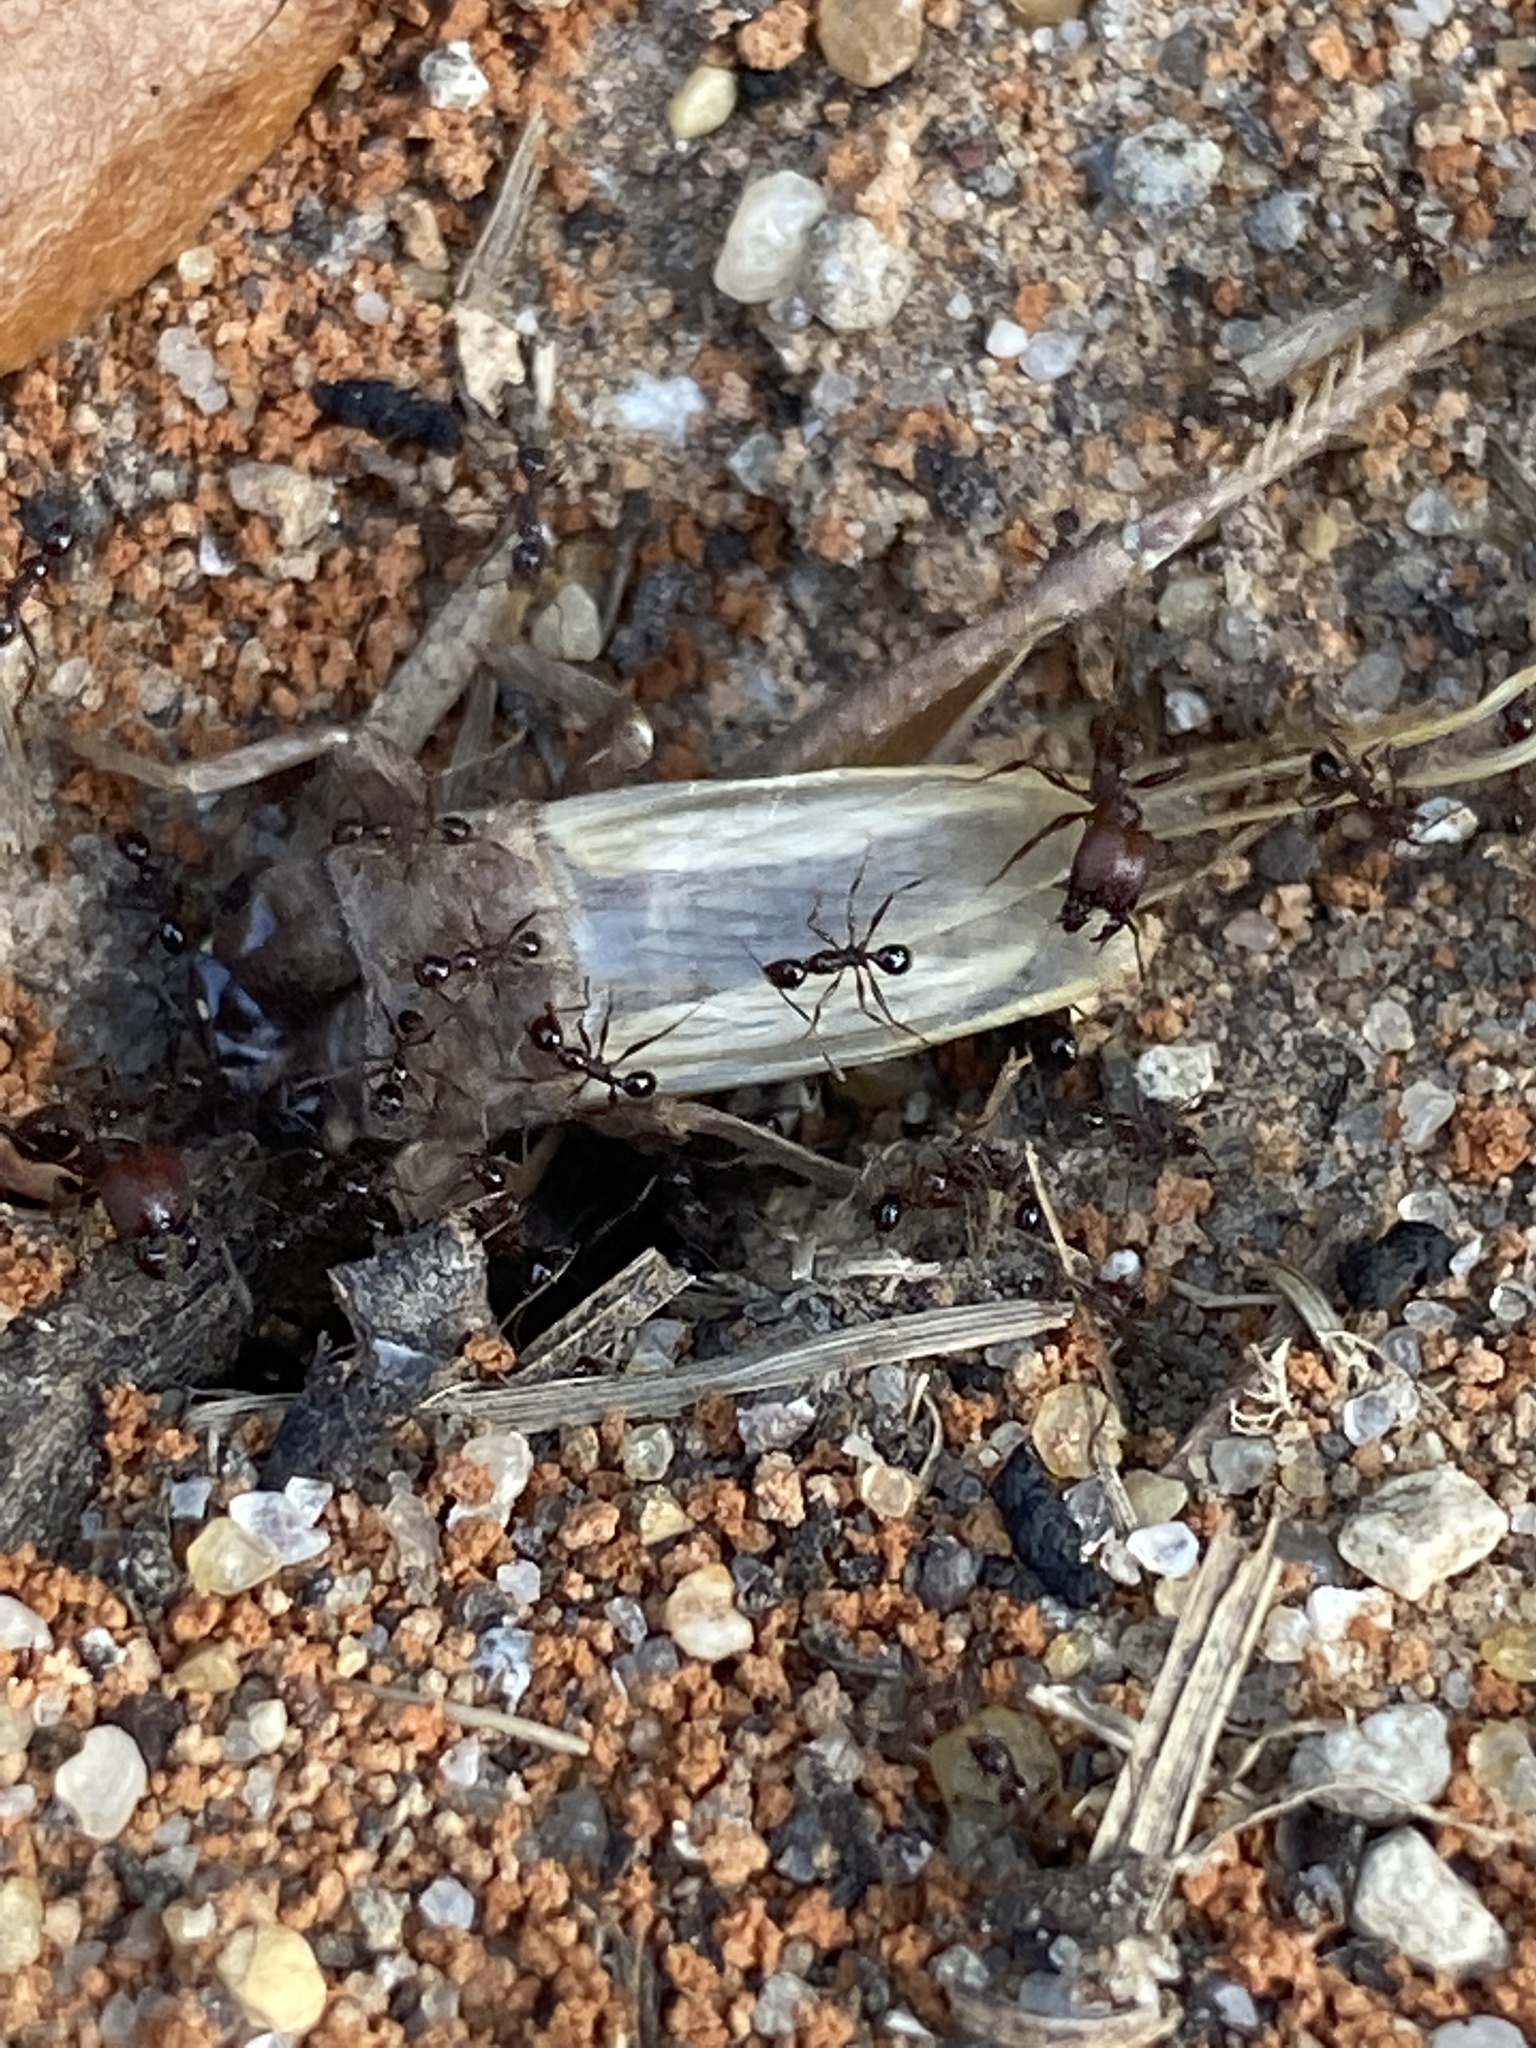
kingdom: Animalia
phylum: Arthropoda
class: Insecta
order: Hymenoptera
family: Formicidae
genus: Pheidole
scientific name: Pheidole obscurithorax
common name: Obscure big-headed ant
